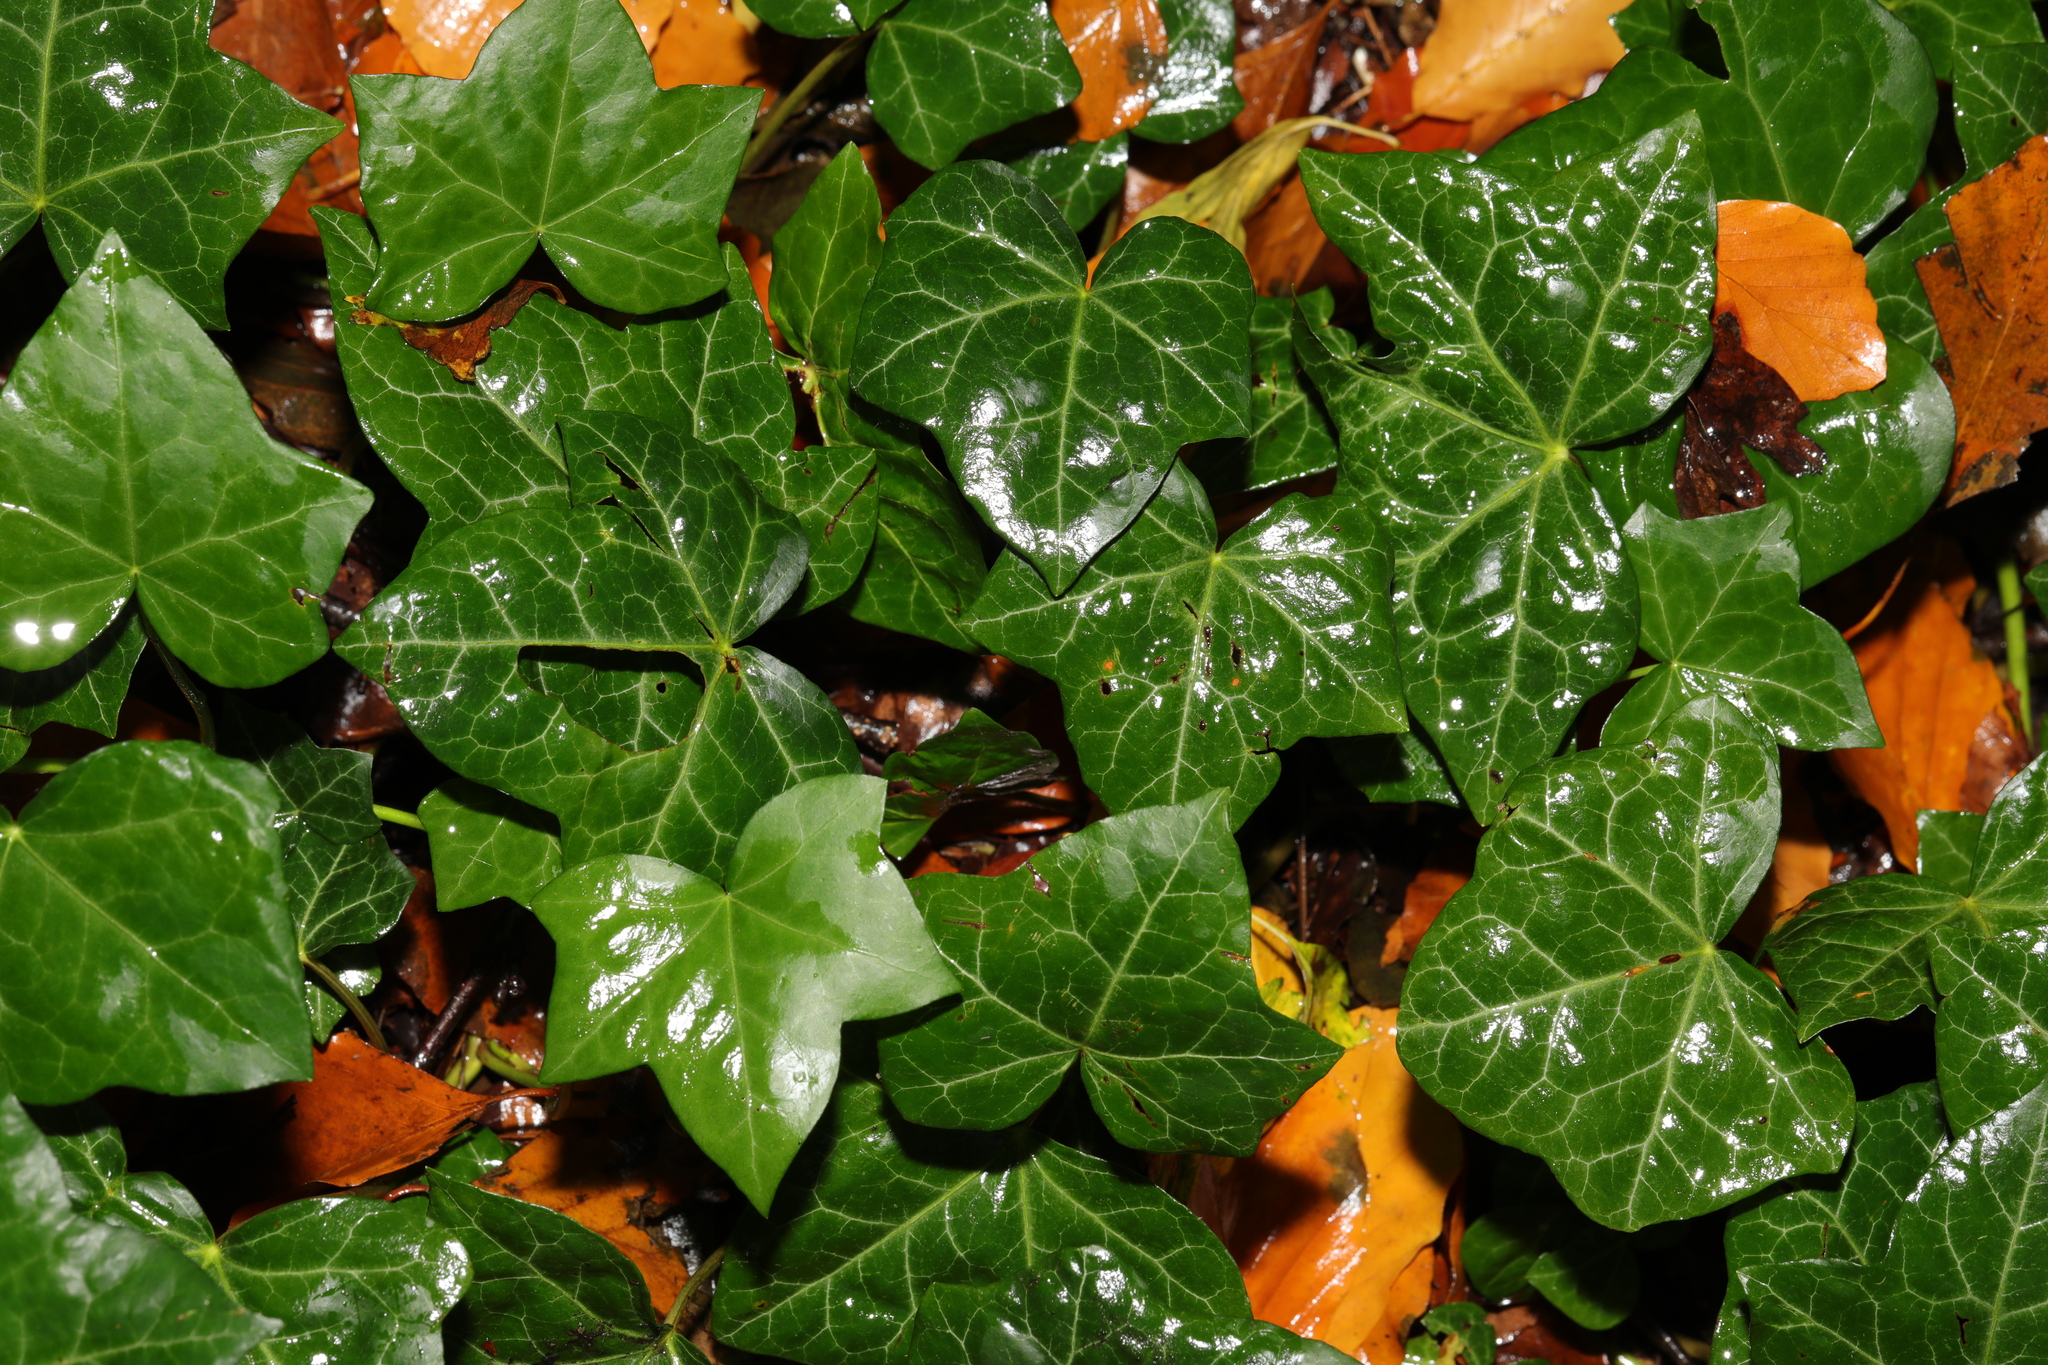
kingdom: Plantae
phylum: Tracheophyta
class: Magnoliopsida
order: Apiales
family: Araliaceae
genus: Hedera
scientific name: Hedera helix
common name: Ivy
